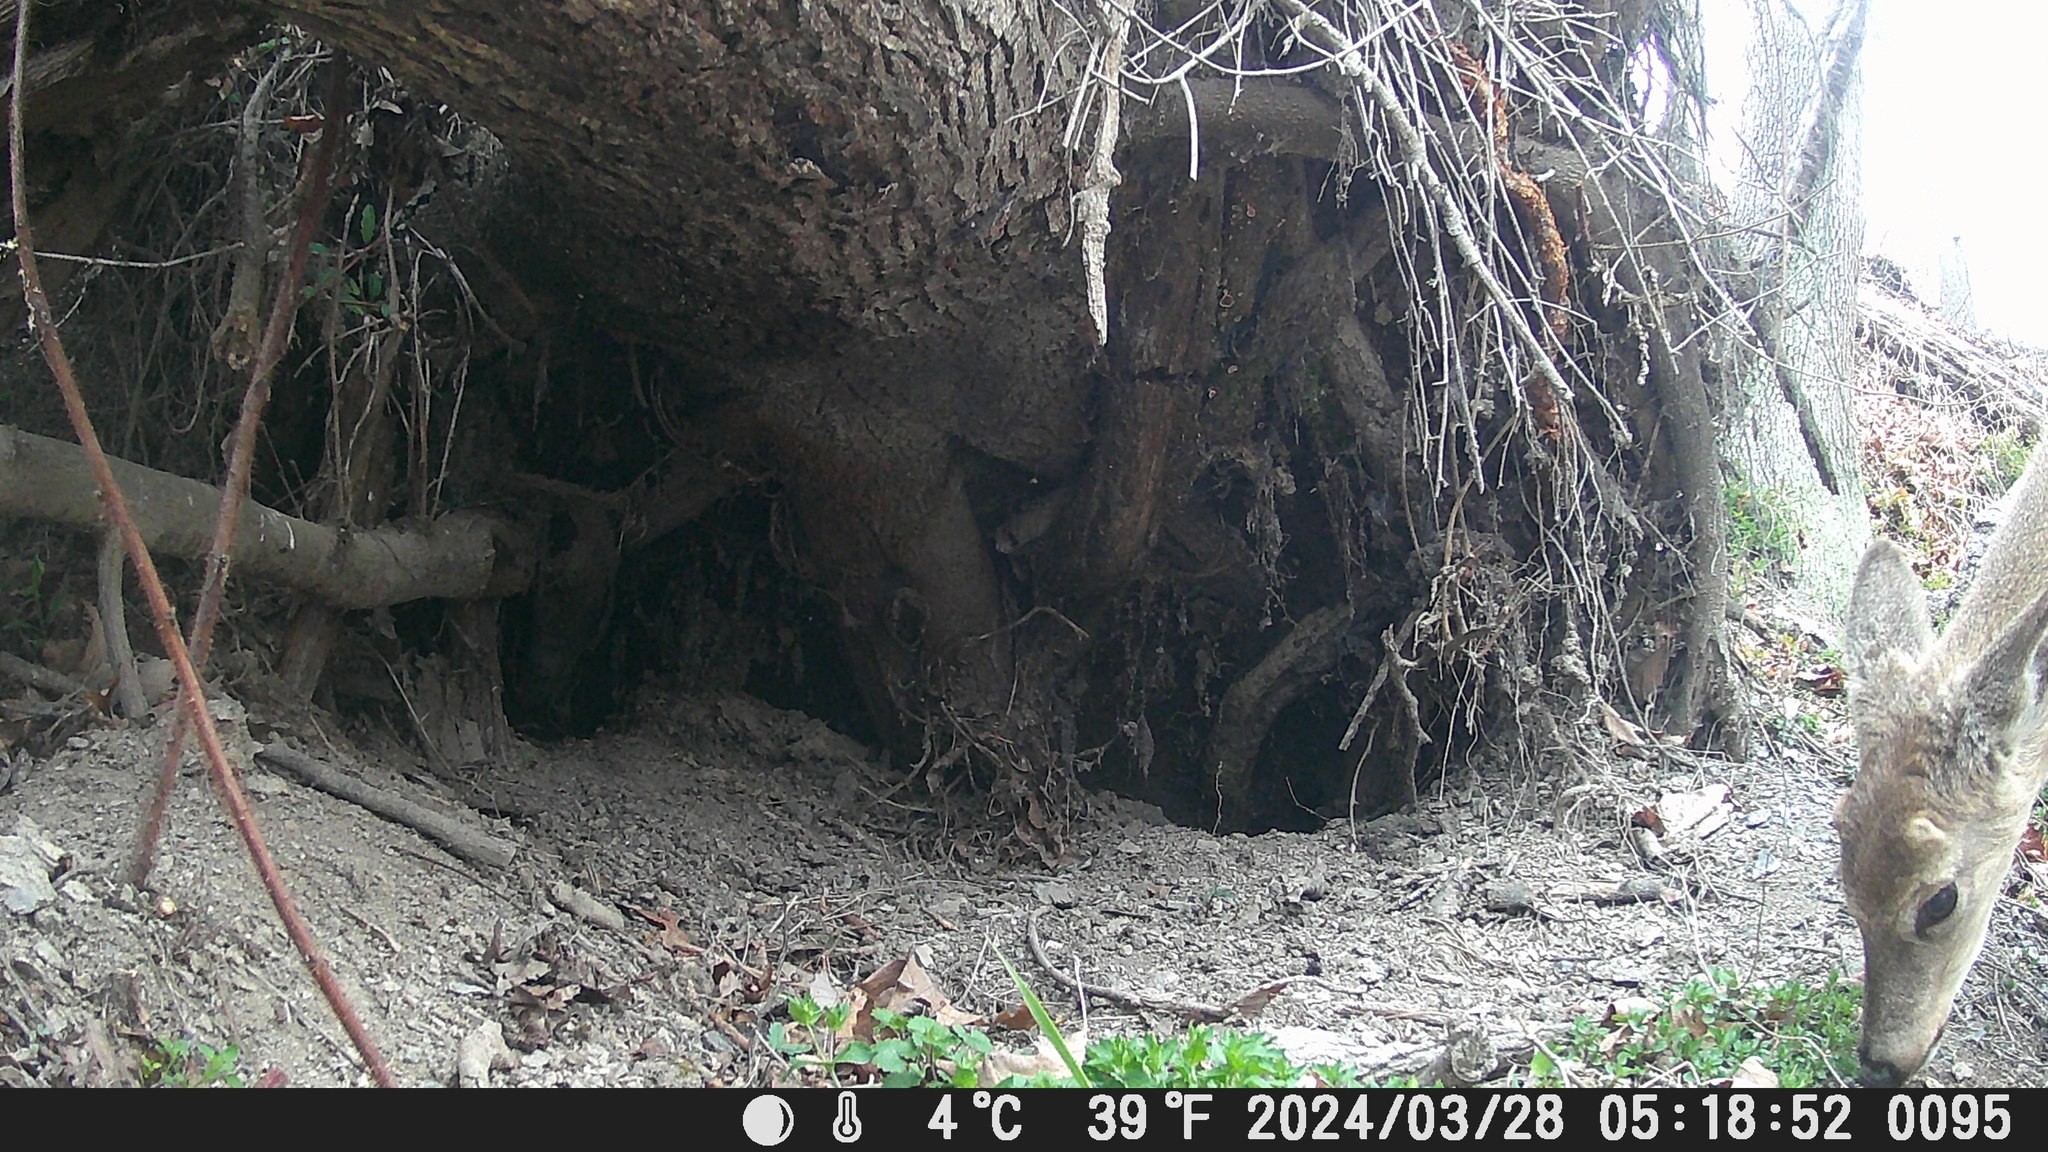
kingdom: Animalia
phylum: Chordata
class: Mammalia
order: Artiodactyla
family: Cervidae
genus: Odocoileus
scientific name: Odocoileus virginianus
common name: White-tailed deer
